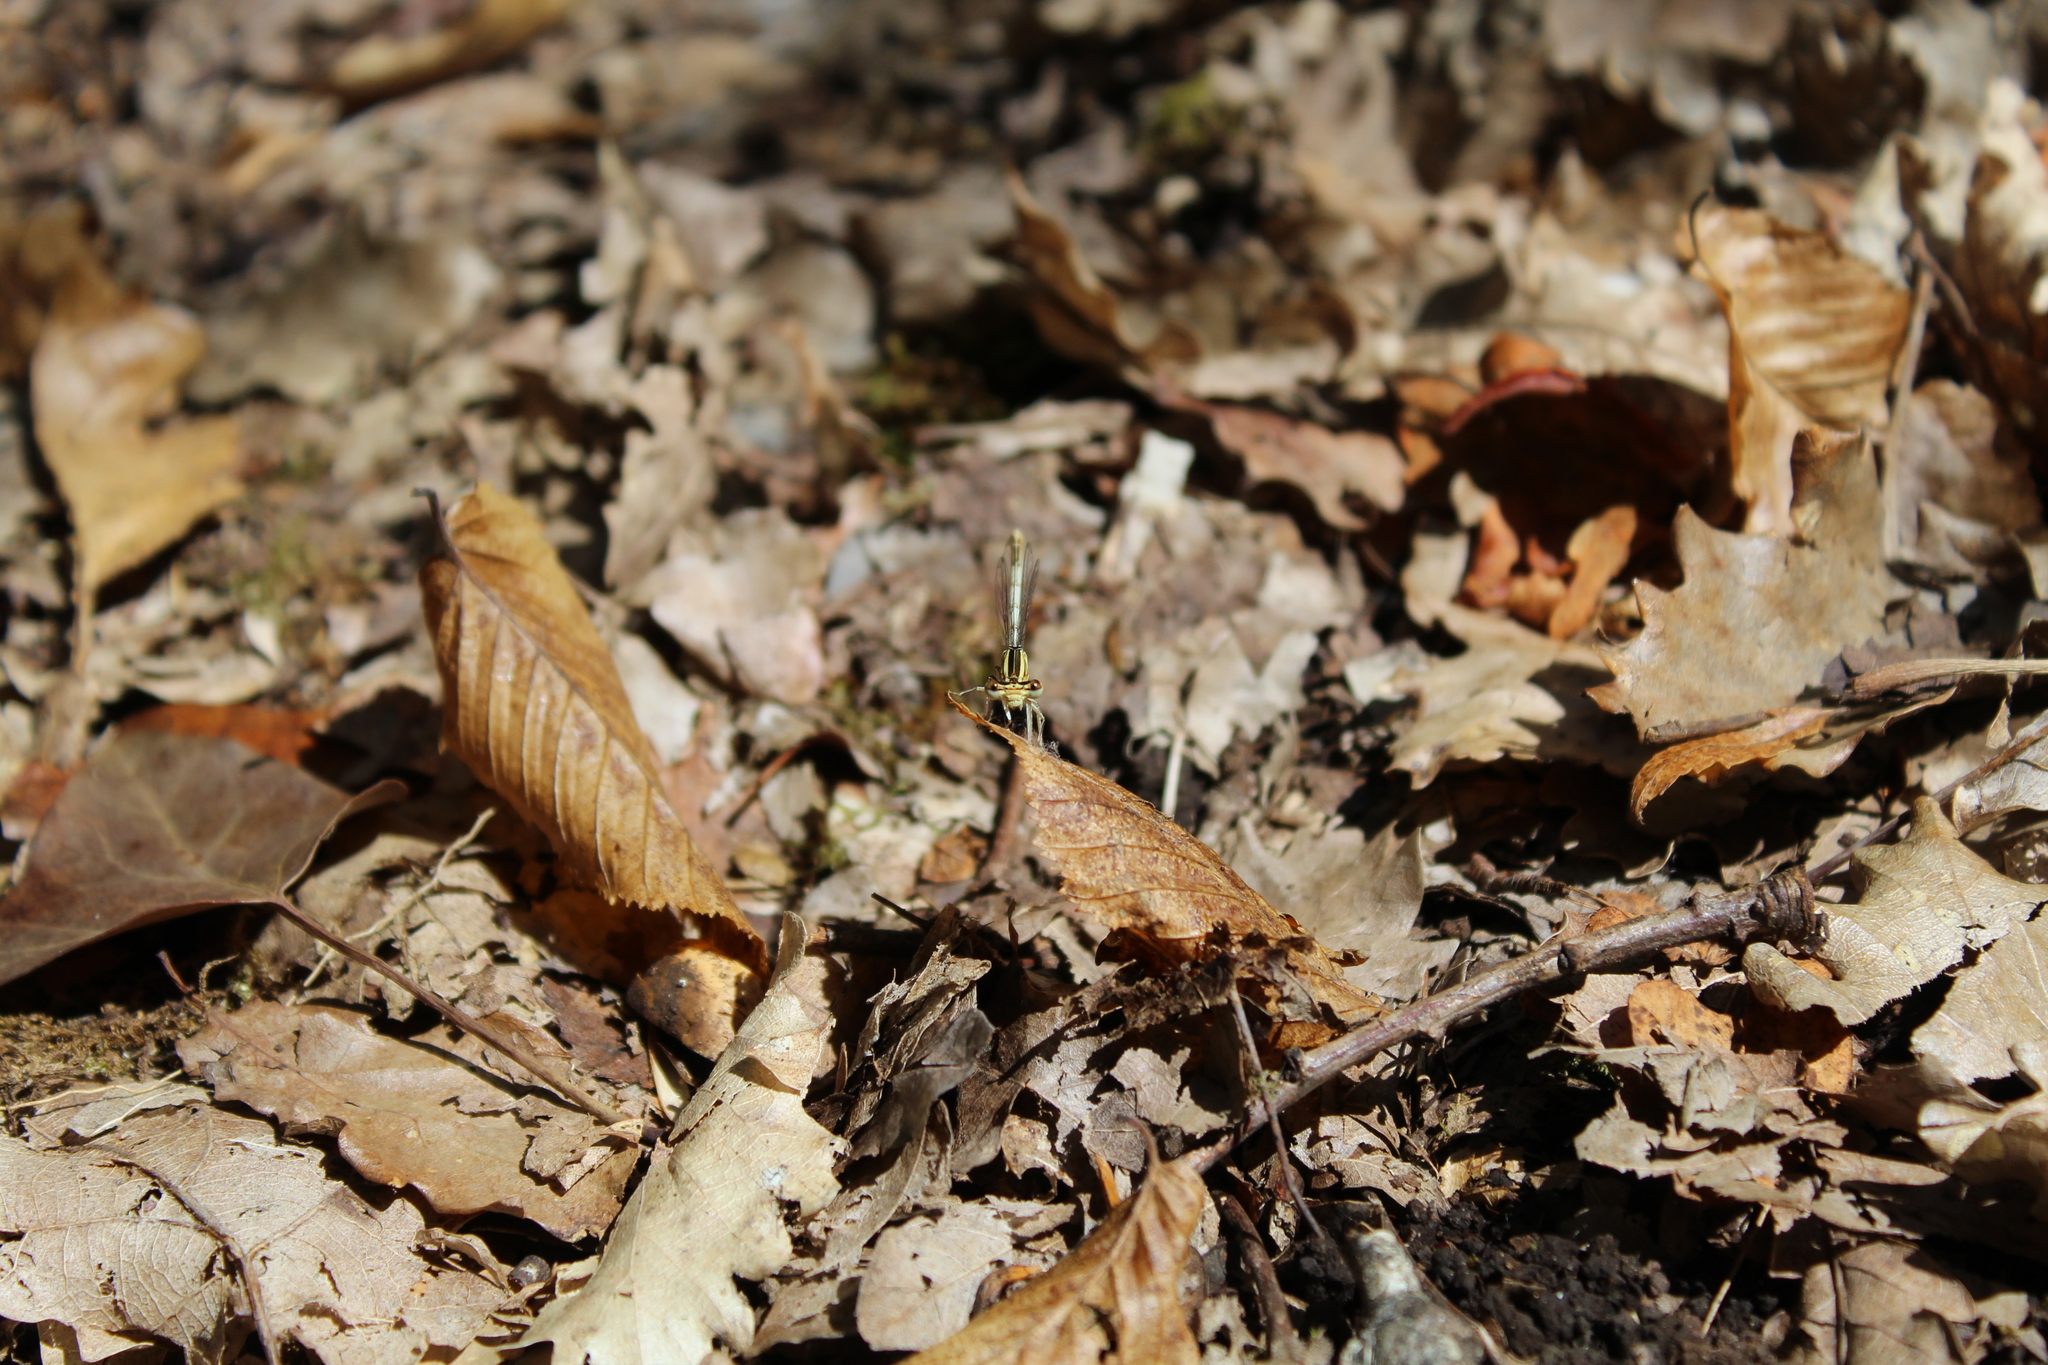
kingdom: Animalia
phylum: Arthropoda
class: Insecta
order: Odonata
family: Platycnemididae
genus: Platycnemis
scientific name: Platycnemis pennipes
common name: White-legged damselfly
